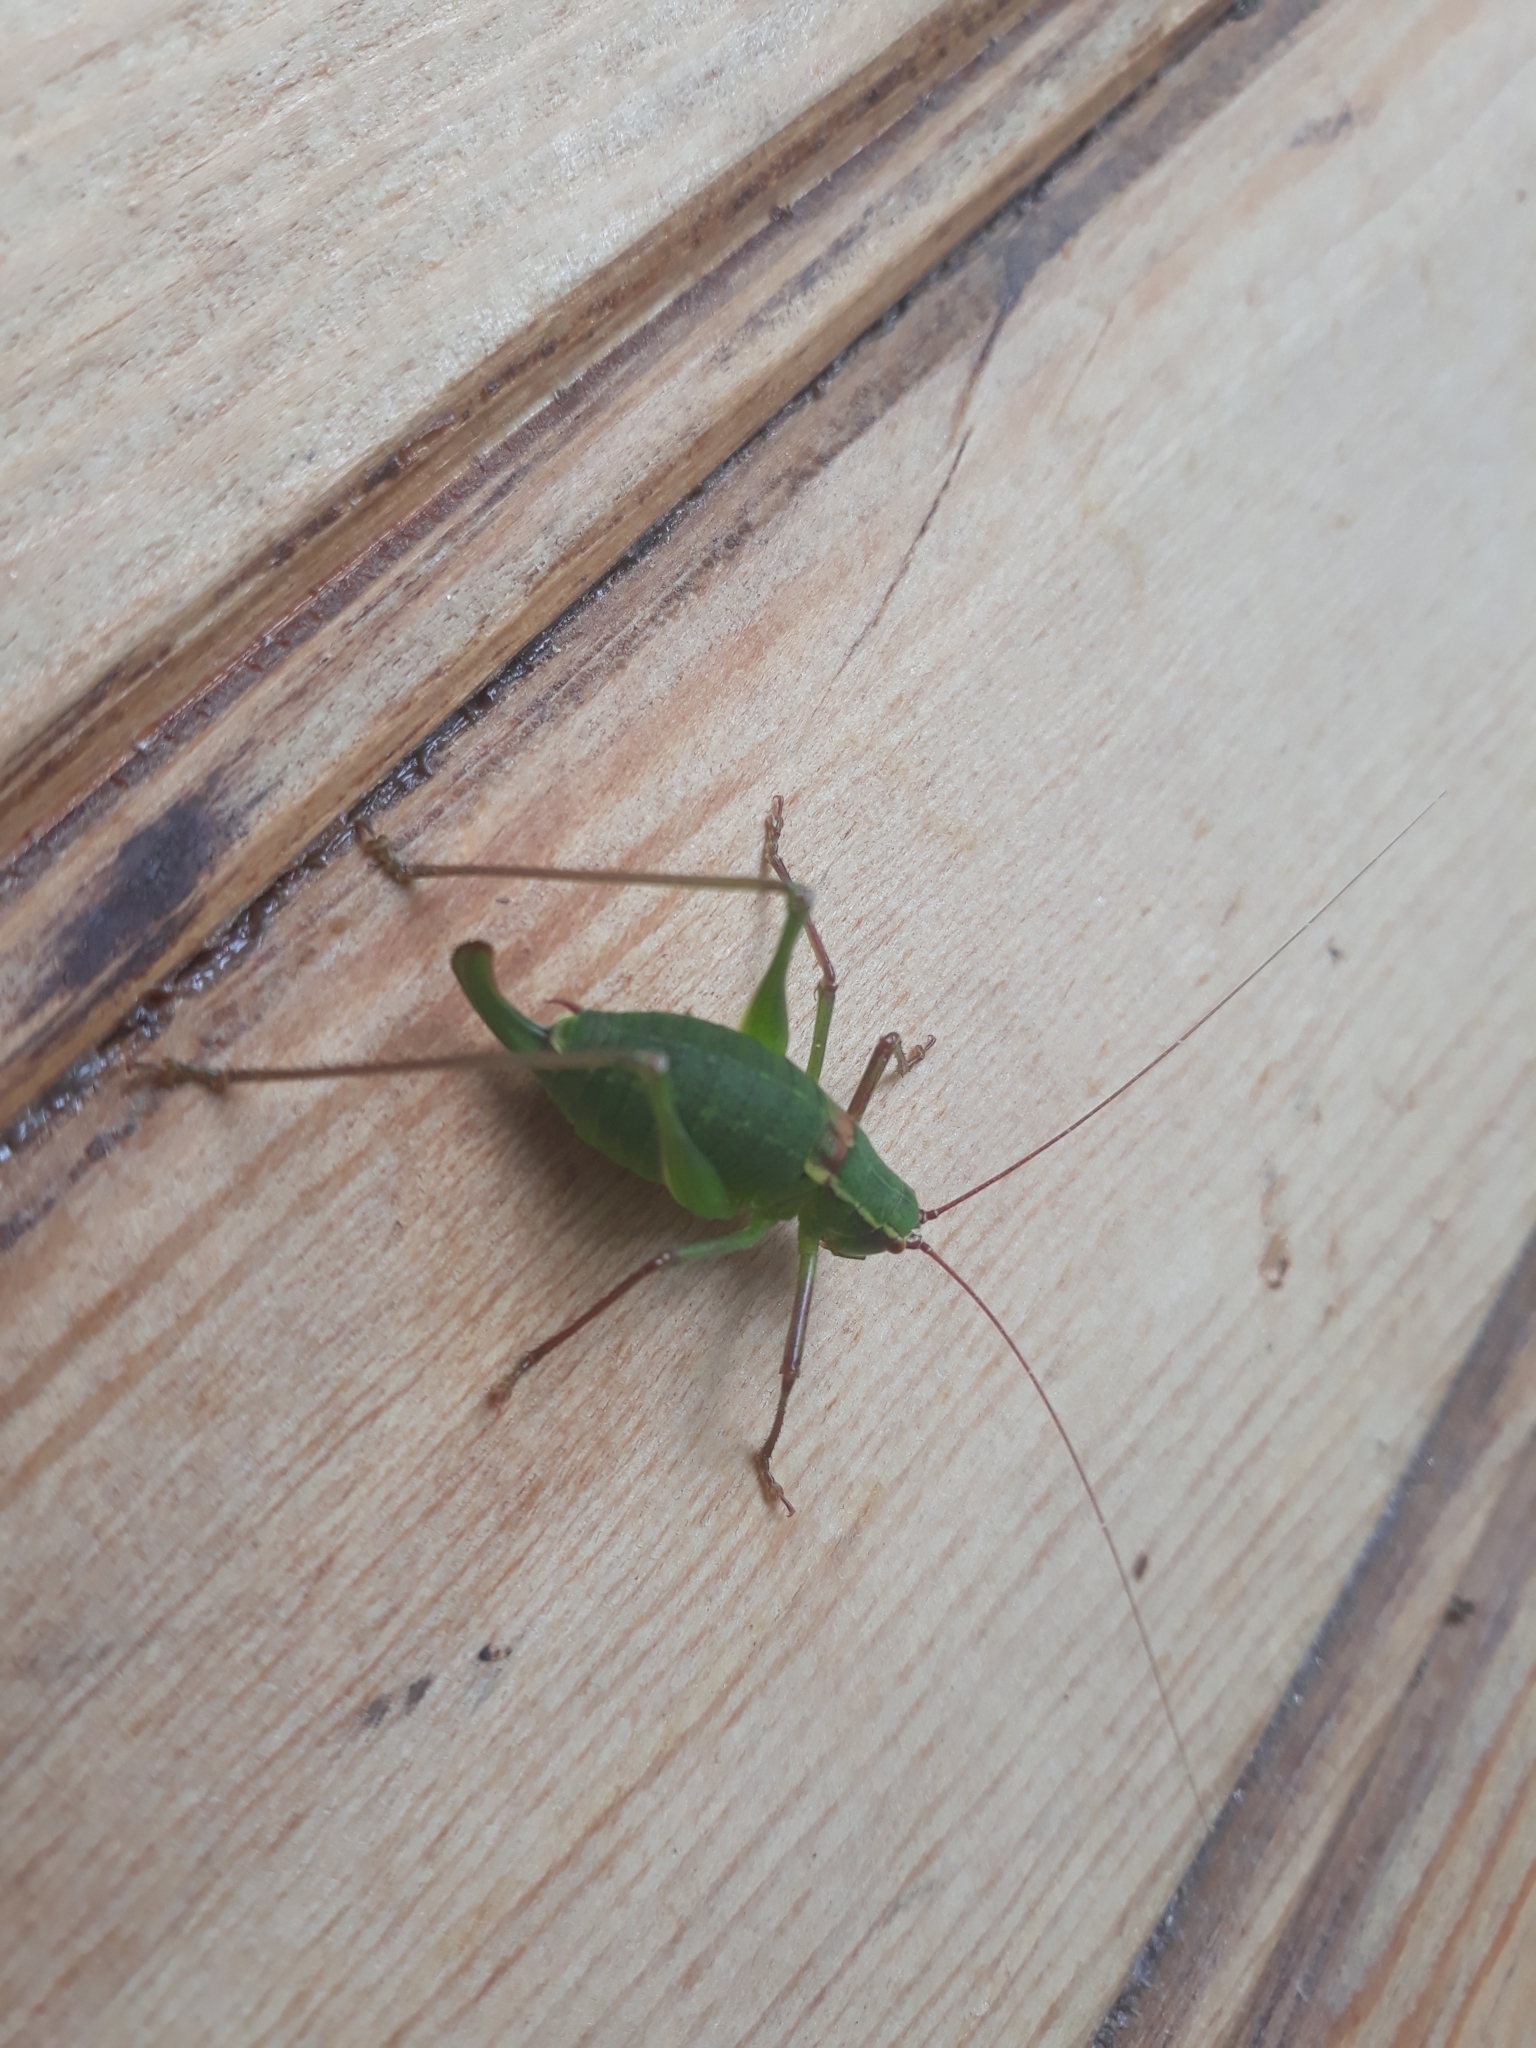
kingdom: Animalia
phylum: Arthropoda
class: Insecta
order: Orthoptera
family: Tettigoniidae
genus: Barbitistes
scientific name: Barbitistes serricauda
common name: Saw-tailed bush-cricket
